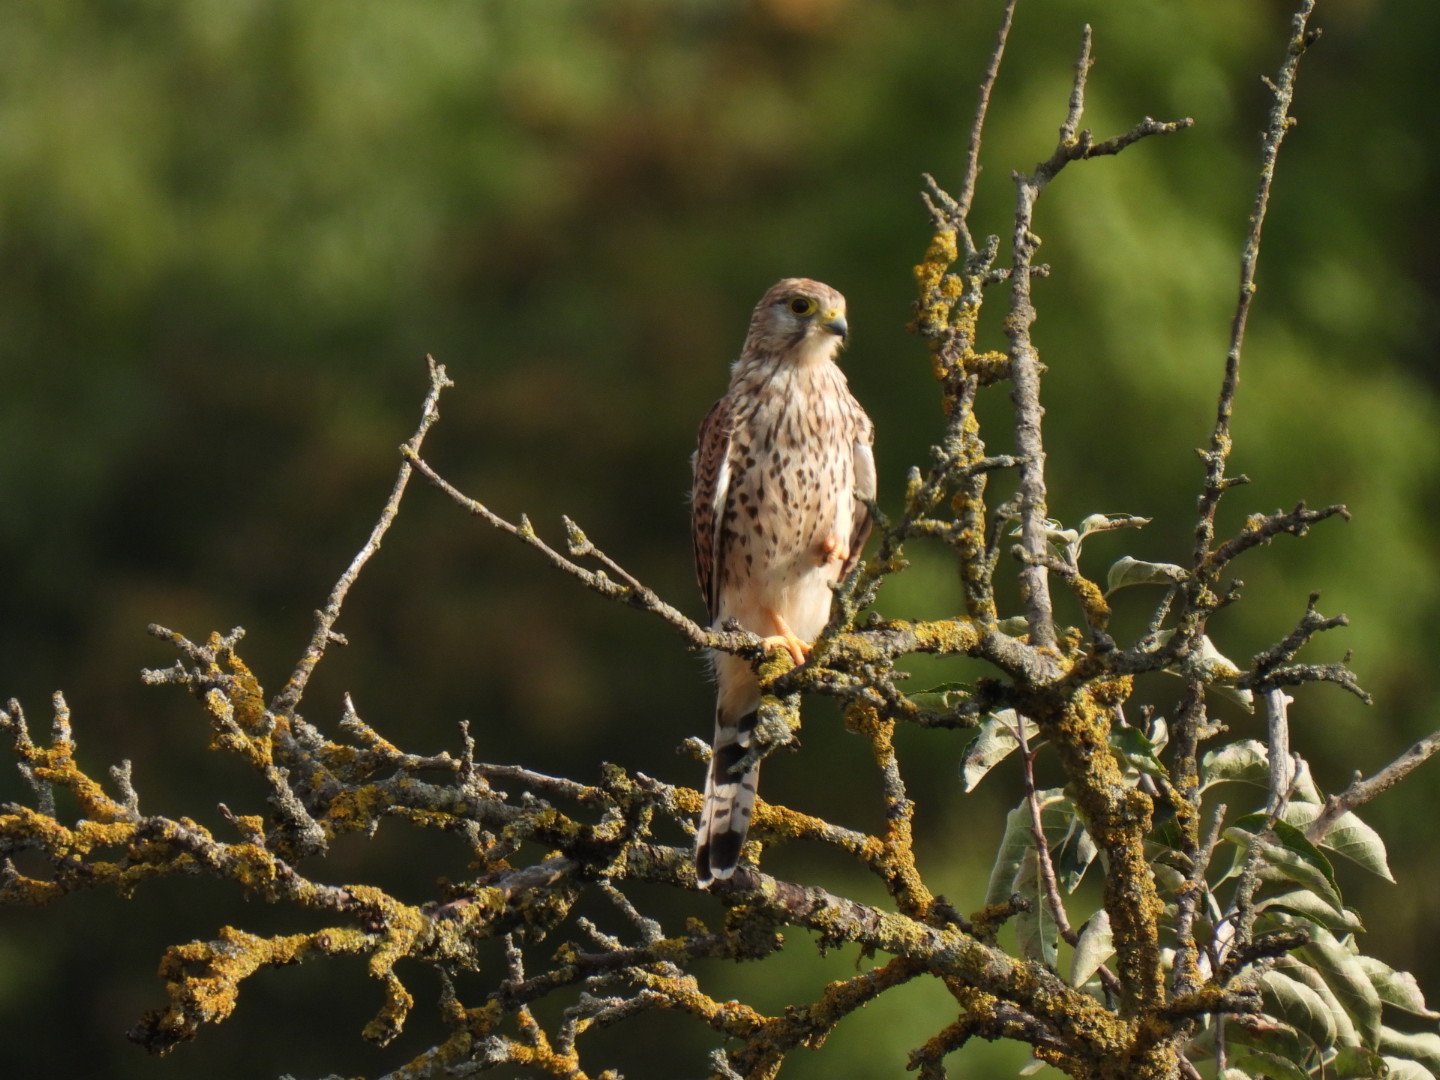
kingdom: Animalia
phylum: Chordata
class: Aves
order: Falconiformes
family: Falconidae
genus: Falco
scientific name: Falco tinnunculus
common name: Common kestrel
